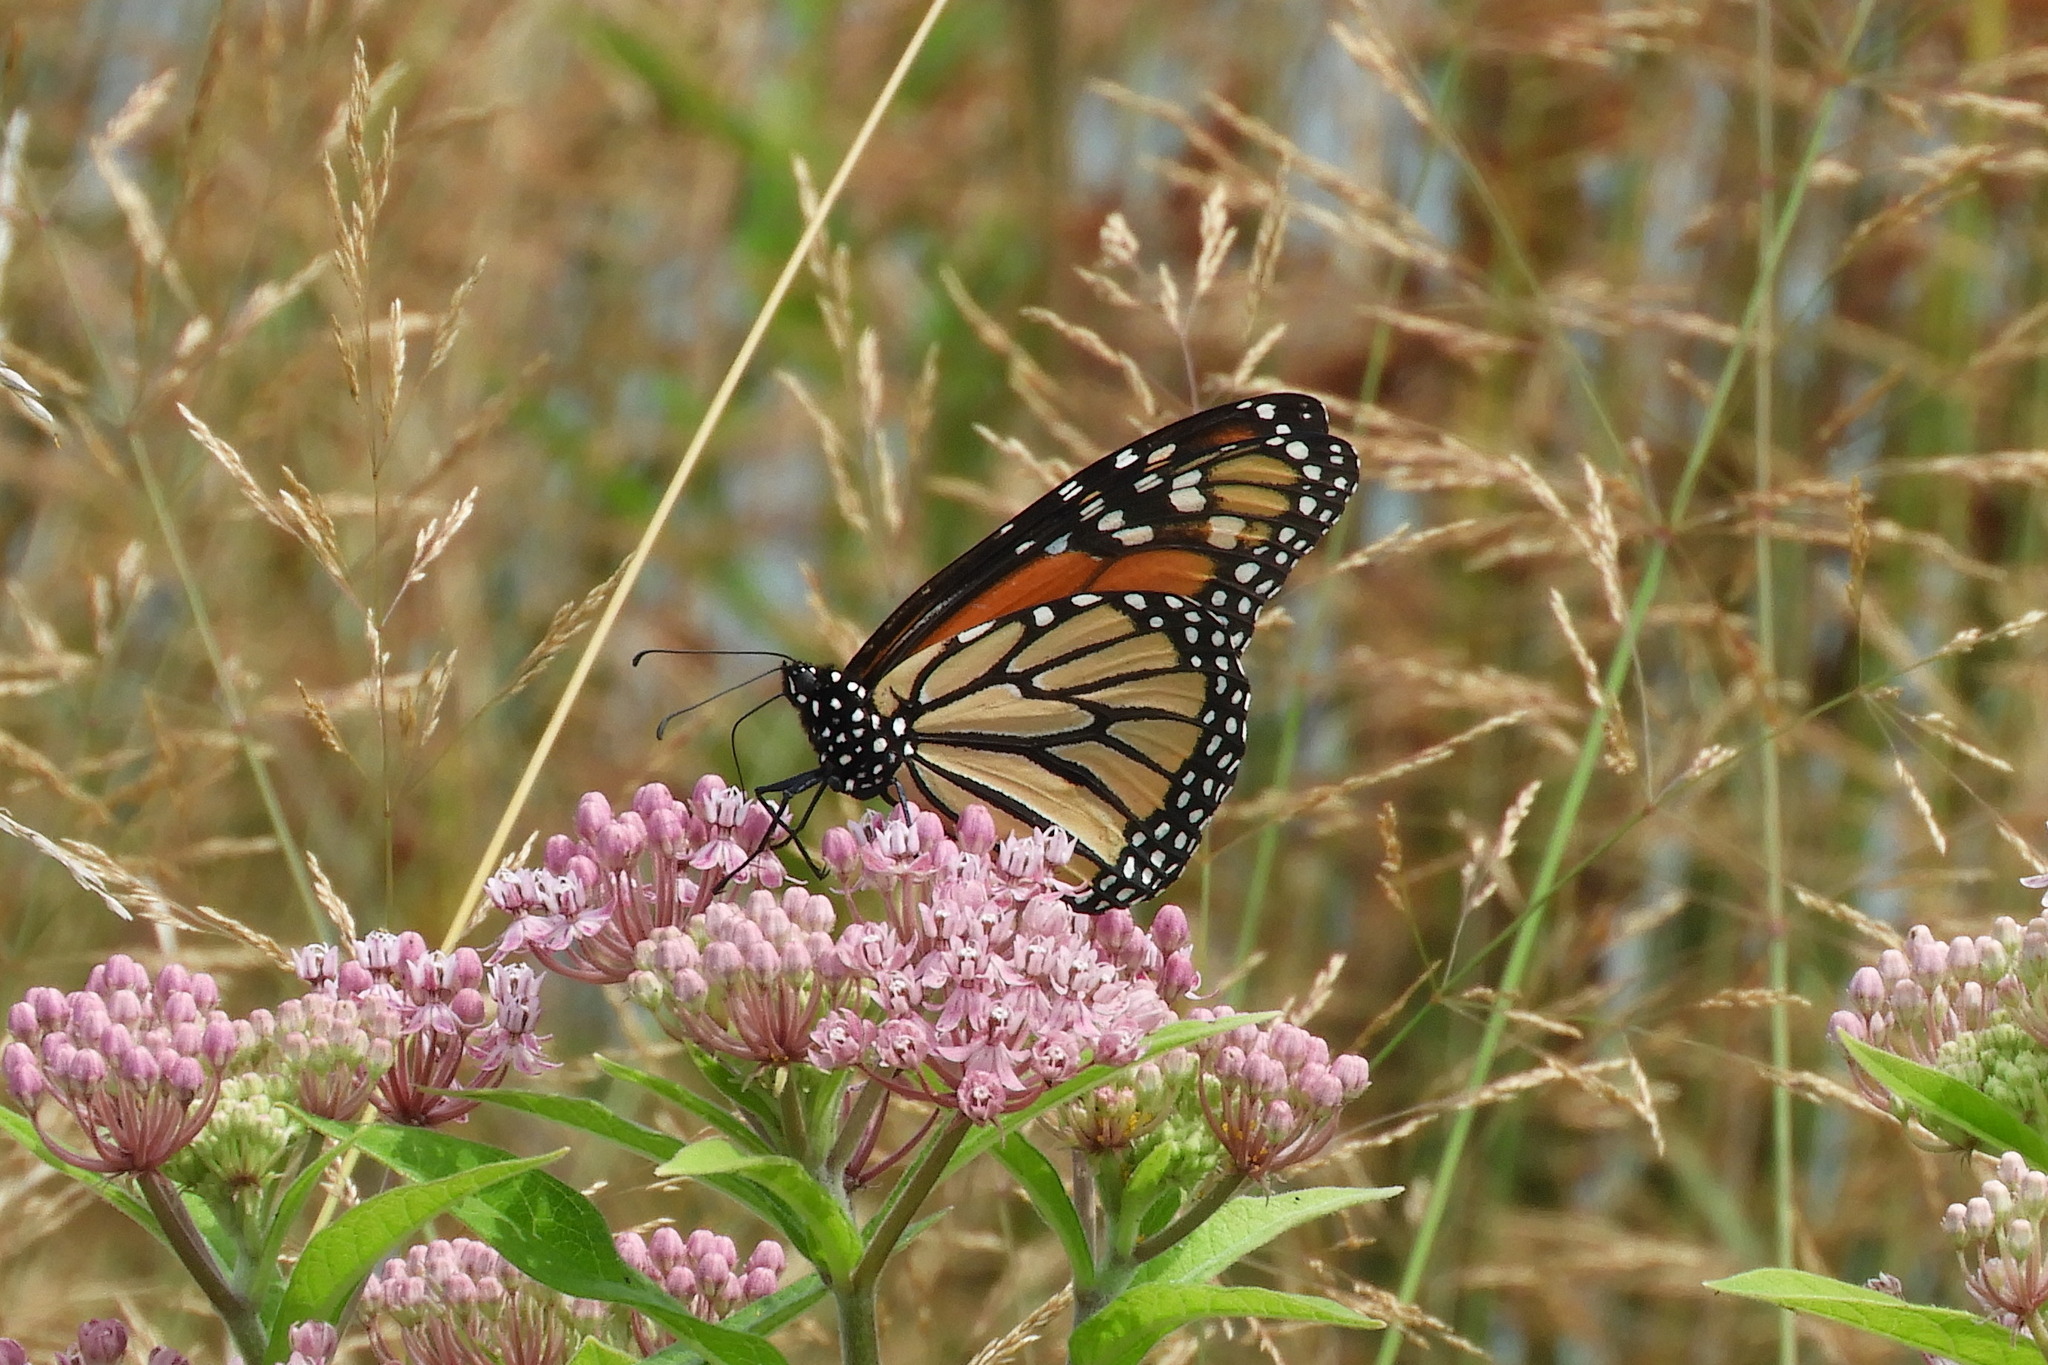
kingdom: Animalia
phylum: Arthropoda
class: Insecta
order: Lepidoptera
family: Nymphalidae
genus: Danaus
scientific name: Danaus plexippus
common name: Monarch
